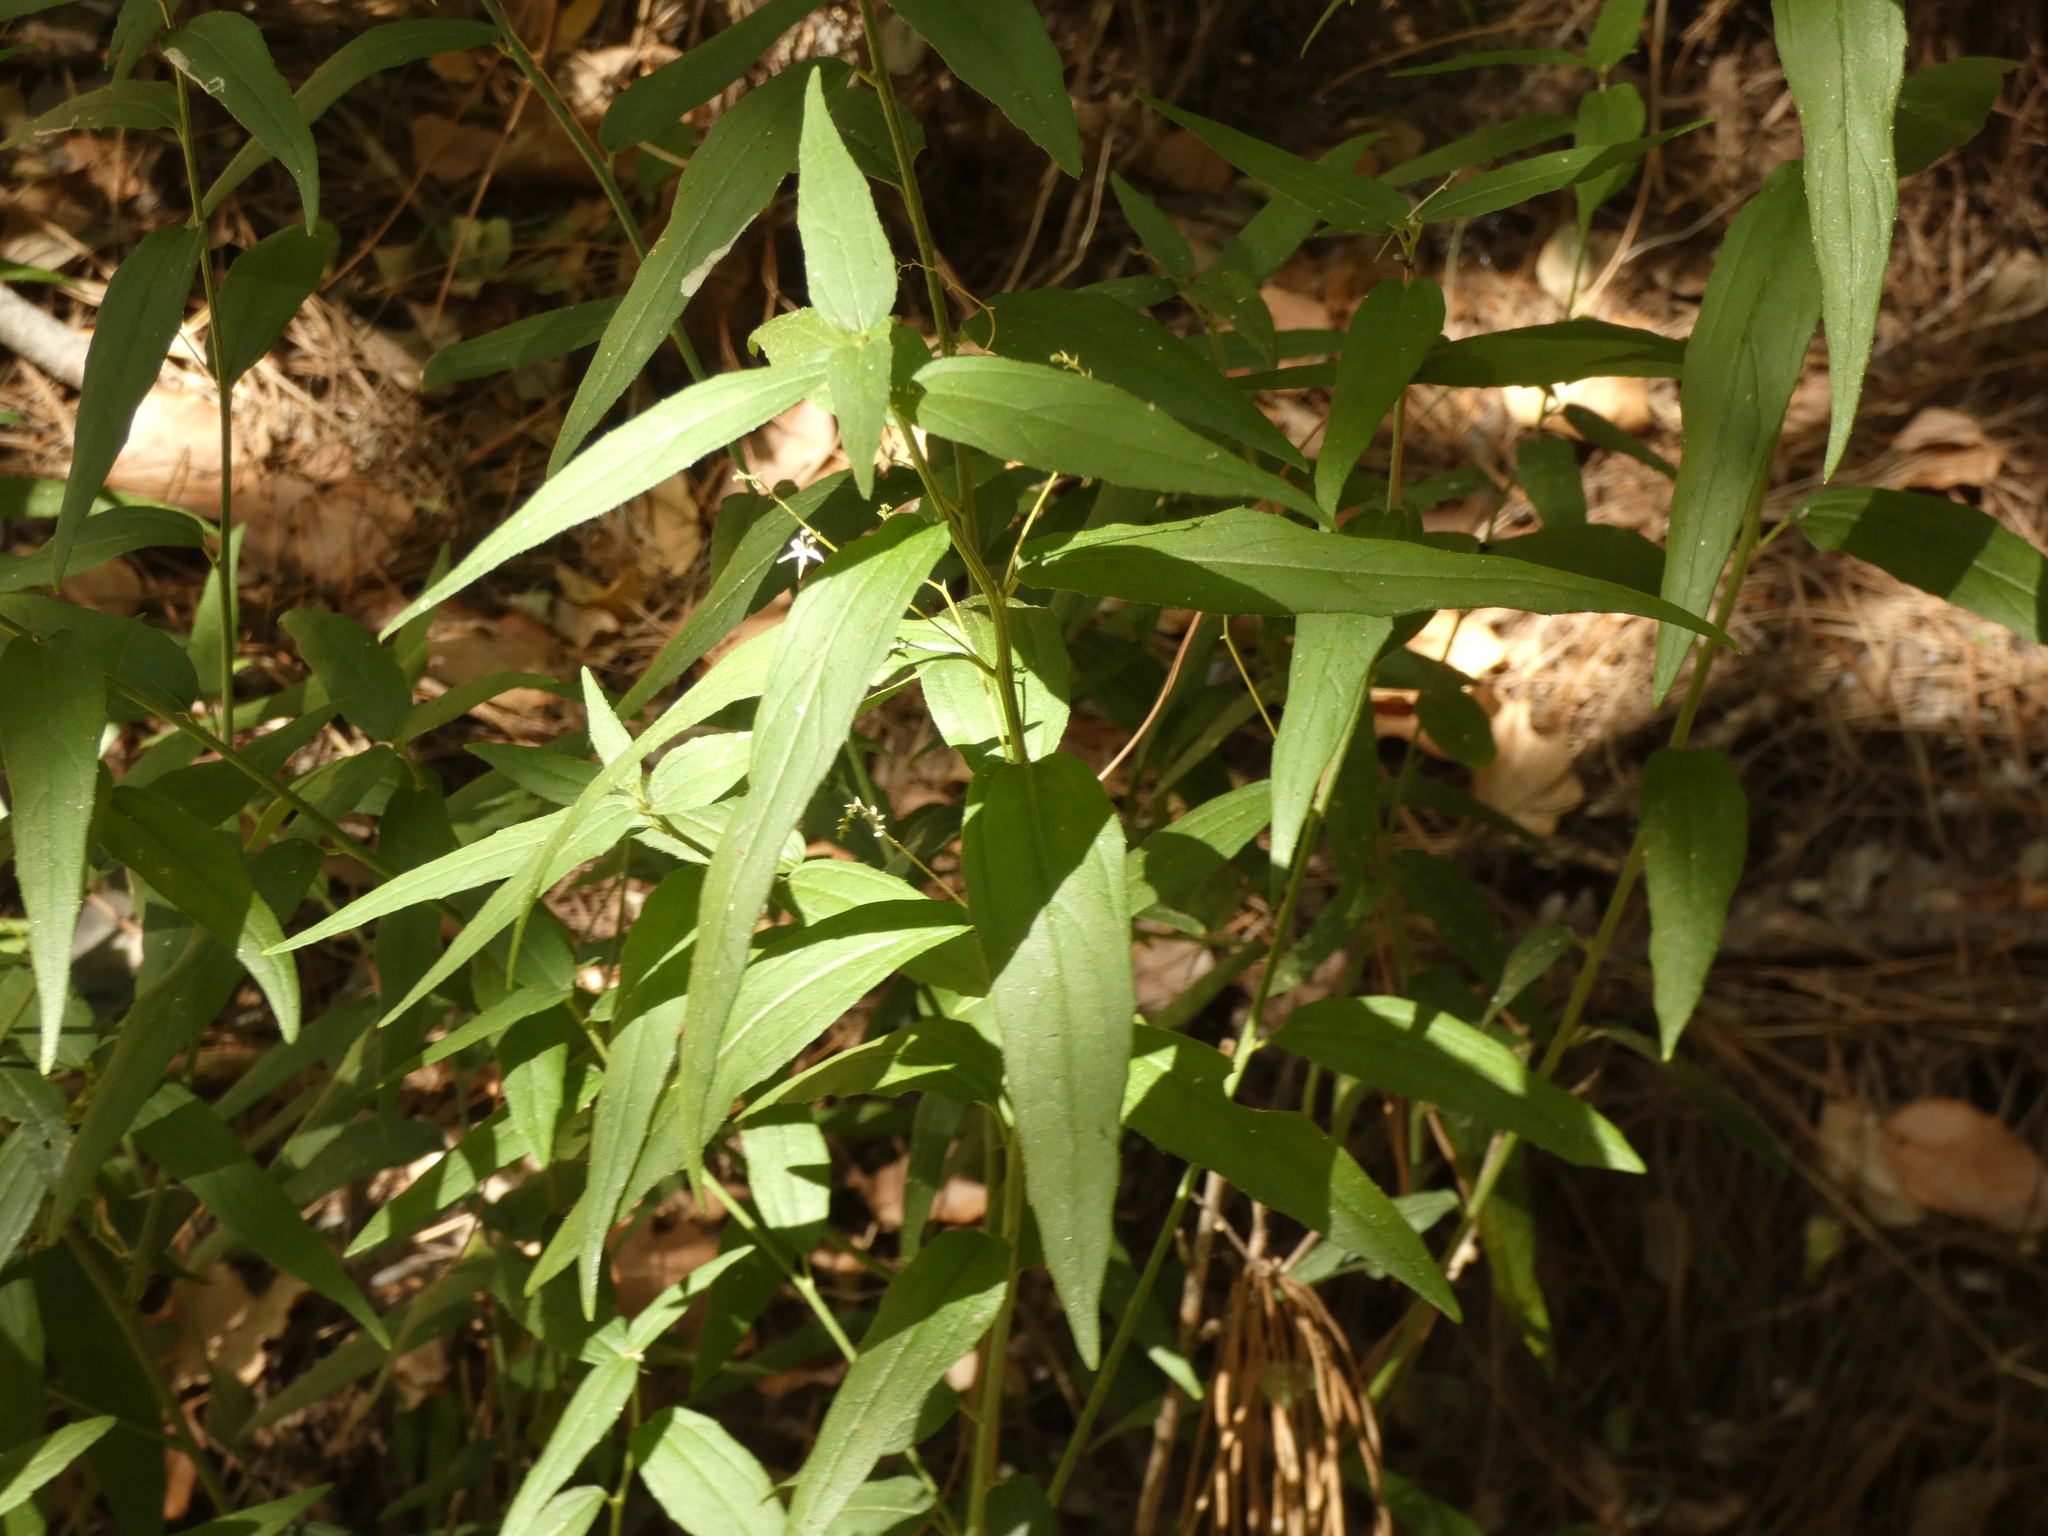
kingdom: Plantae
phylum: Tracheophyta
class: Magnoliopsida
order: Malpighiales
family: Euphorbiaceae
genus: Chiropetalum
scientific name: Chiropetalum tricuspidatum
